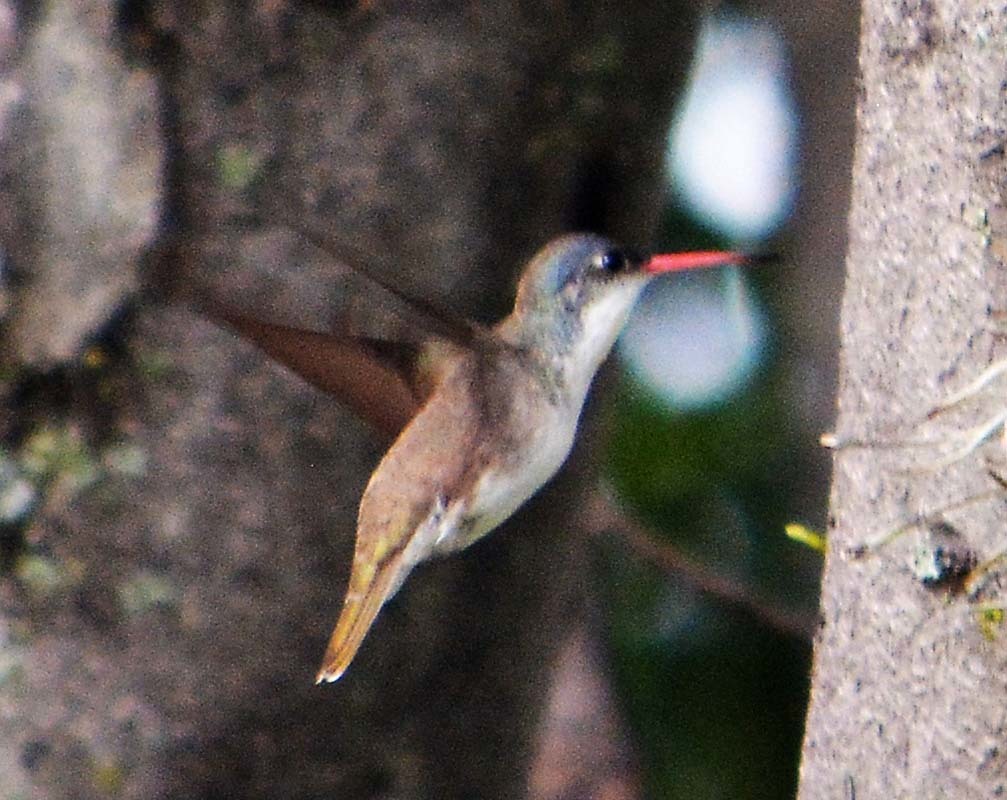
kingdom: Animalia
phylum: Chordata
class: Aves
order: Apodiformes
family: Trochilidae
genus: Leucolia
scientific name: Leucolia violiceps
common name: Violet-crowned hummingbird
